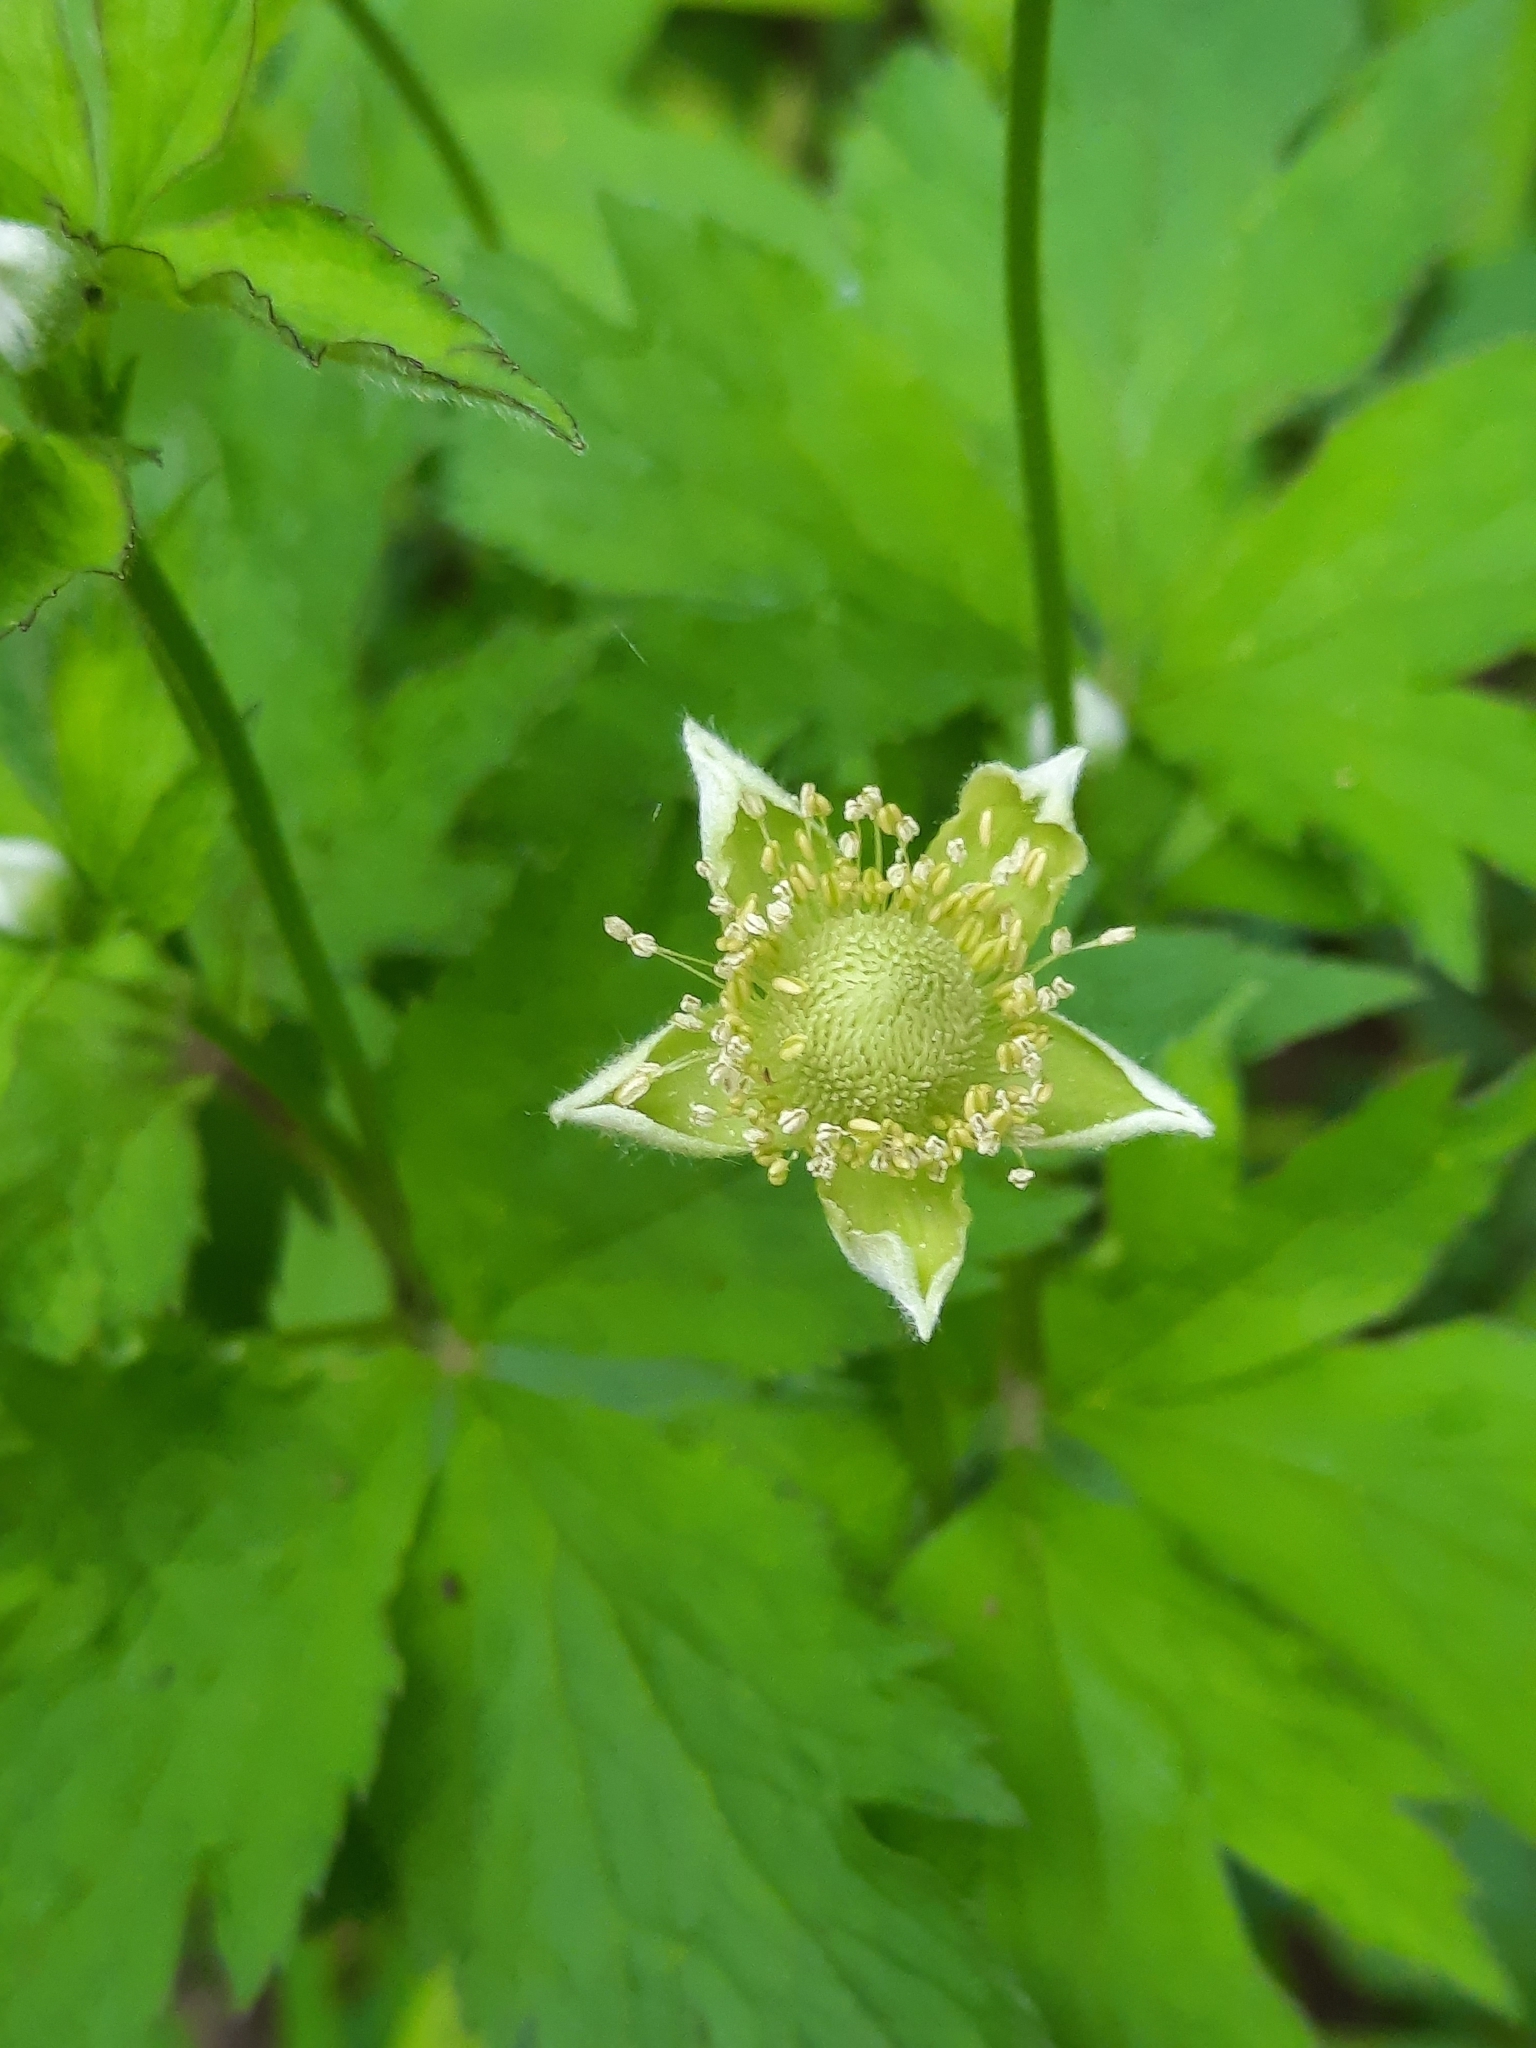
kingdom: Plantae
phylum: Tracheophyta
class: Magnoliopsida
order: Ranunculales
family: Ranunculaceae
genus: Anemone
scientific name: Anemone virginiana
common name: Tall anemone
